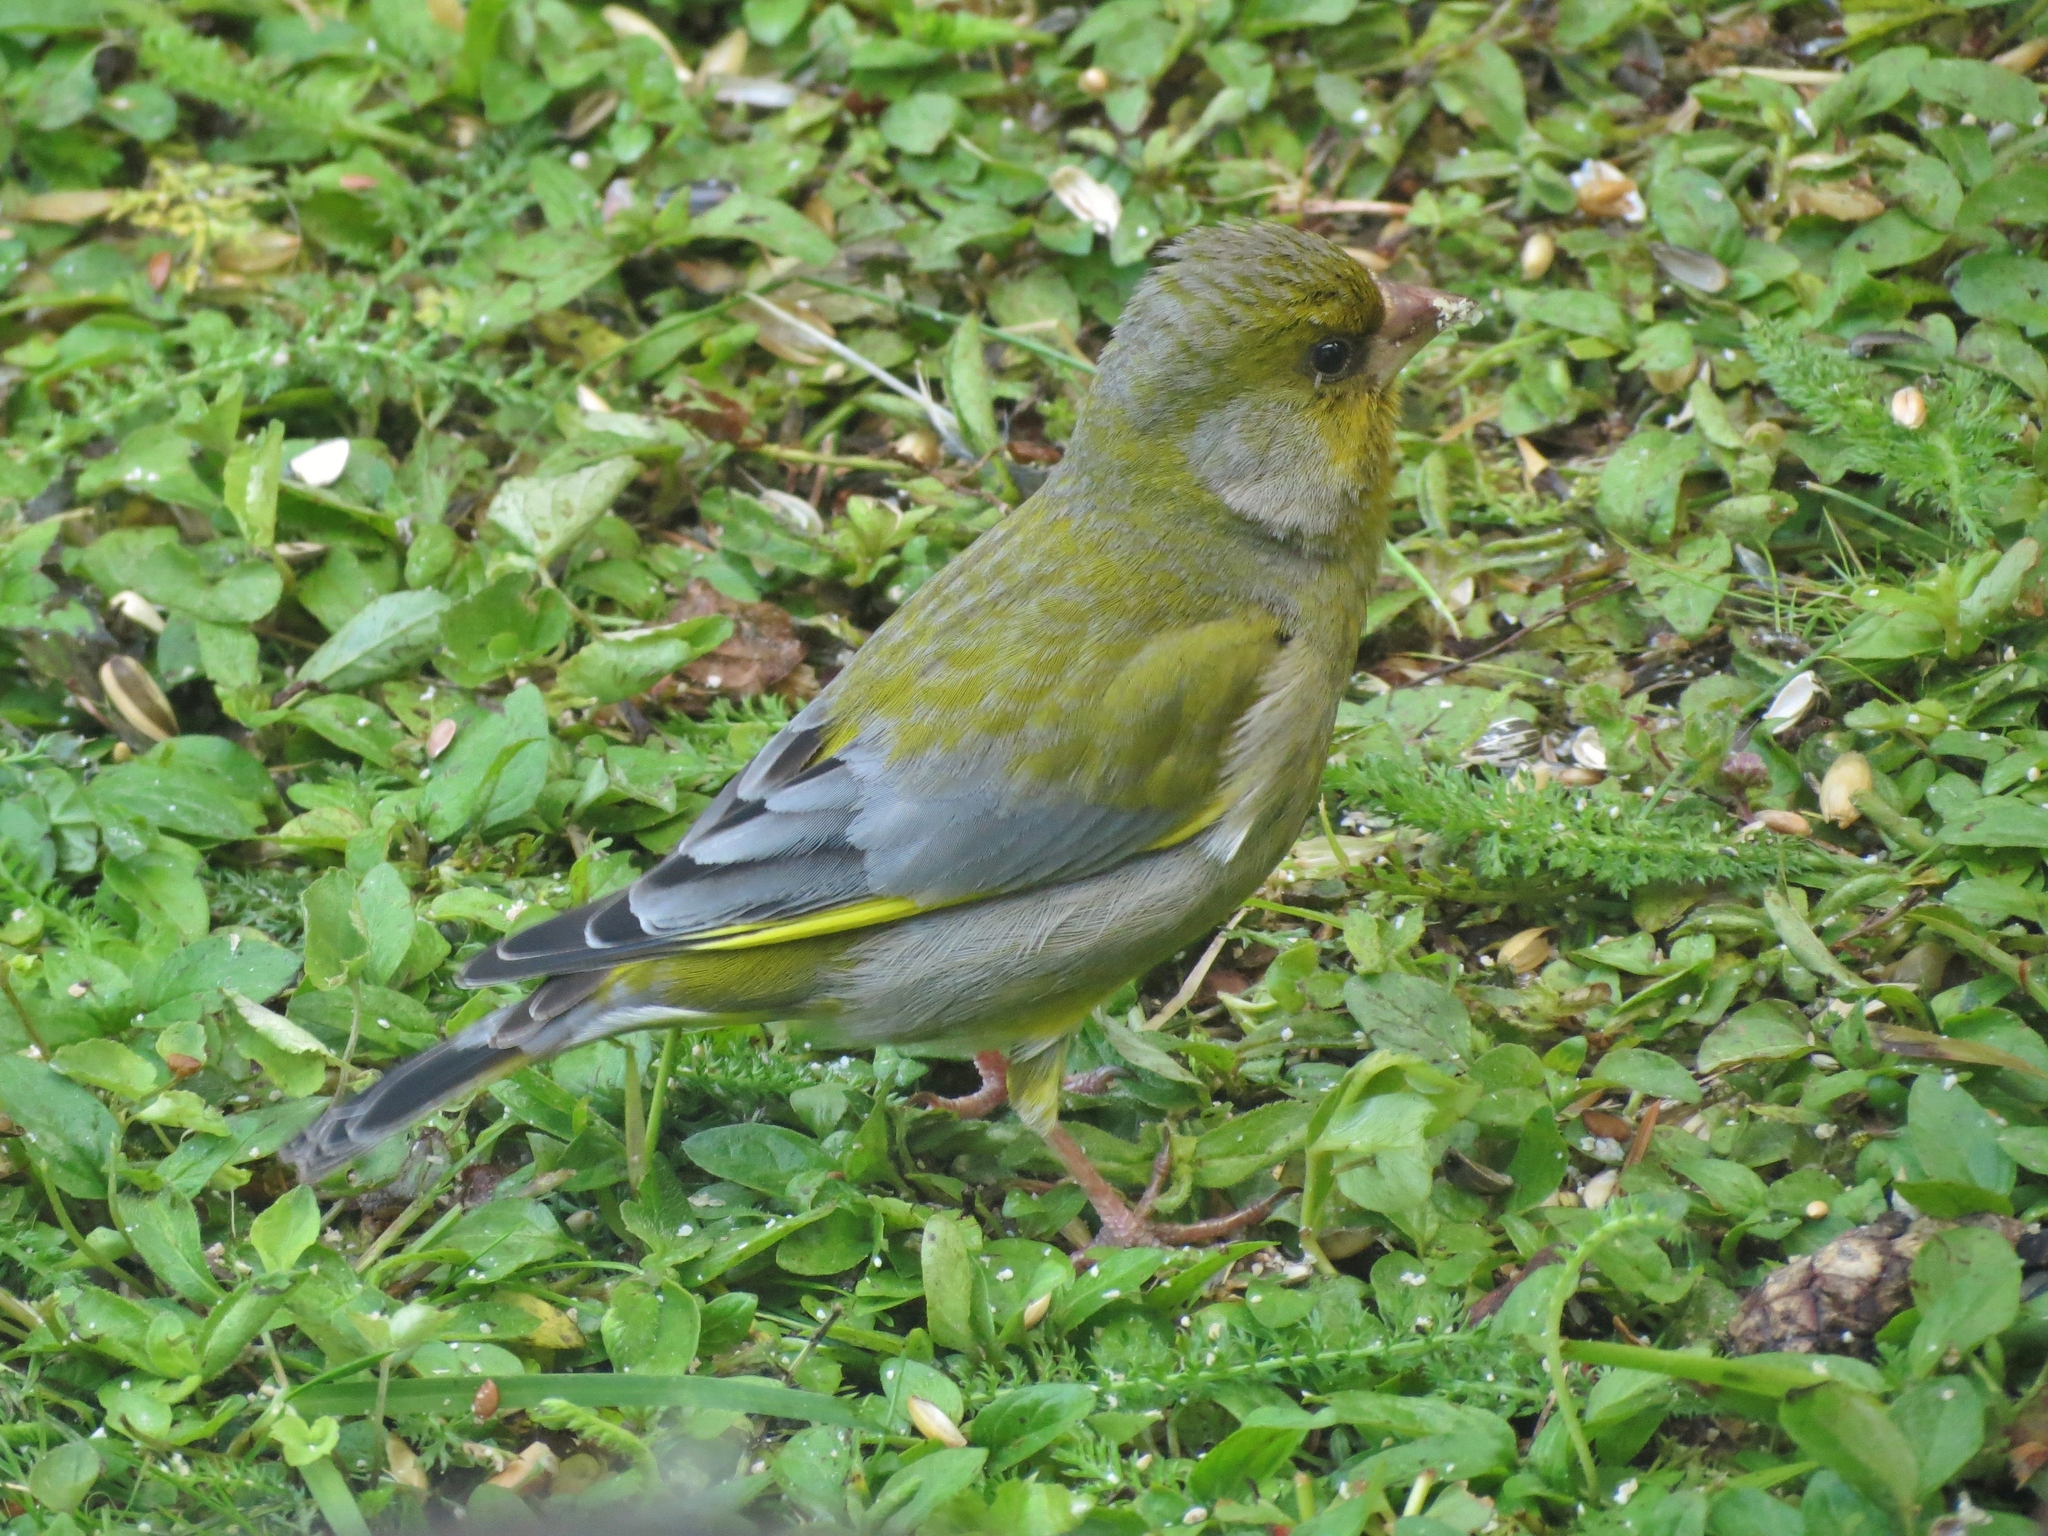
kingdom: Plantae
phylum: Tracheophyta
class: Liliopsida
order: Poales
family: Poaceae
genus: Chloris
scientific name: Chloris chloris
